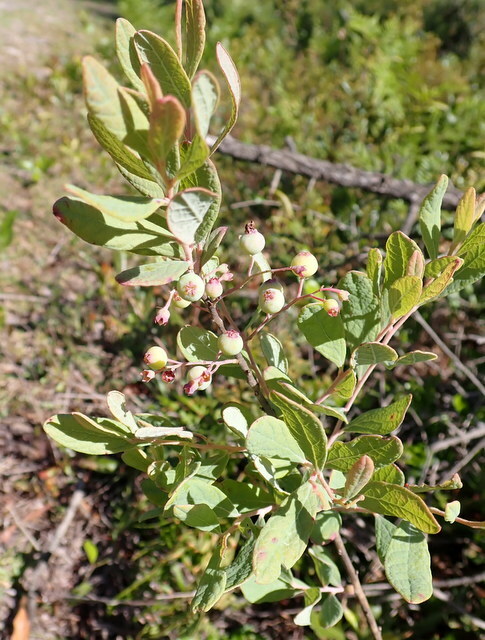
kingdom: Plantae
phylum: Tracheophyta
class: Magnoliopsida
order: Ericales
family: Ericaceae
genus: Gaylussacia
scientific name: Gaylussacia nana
